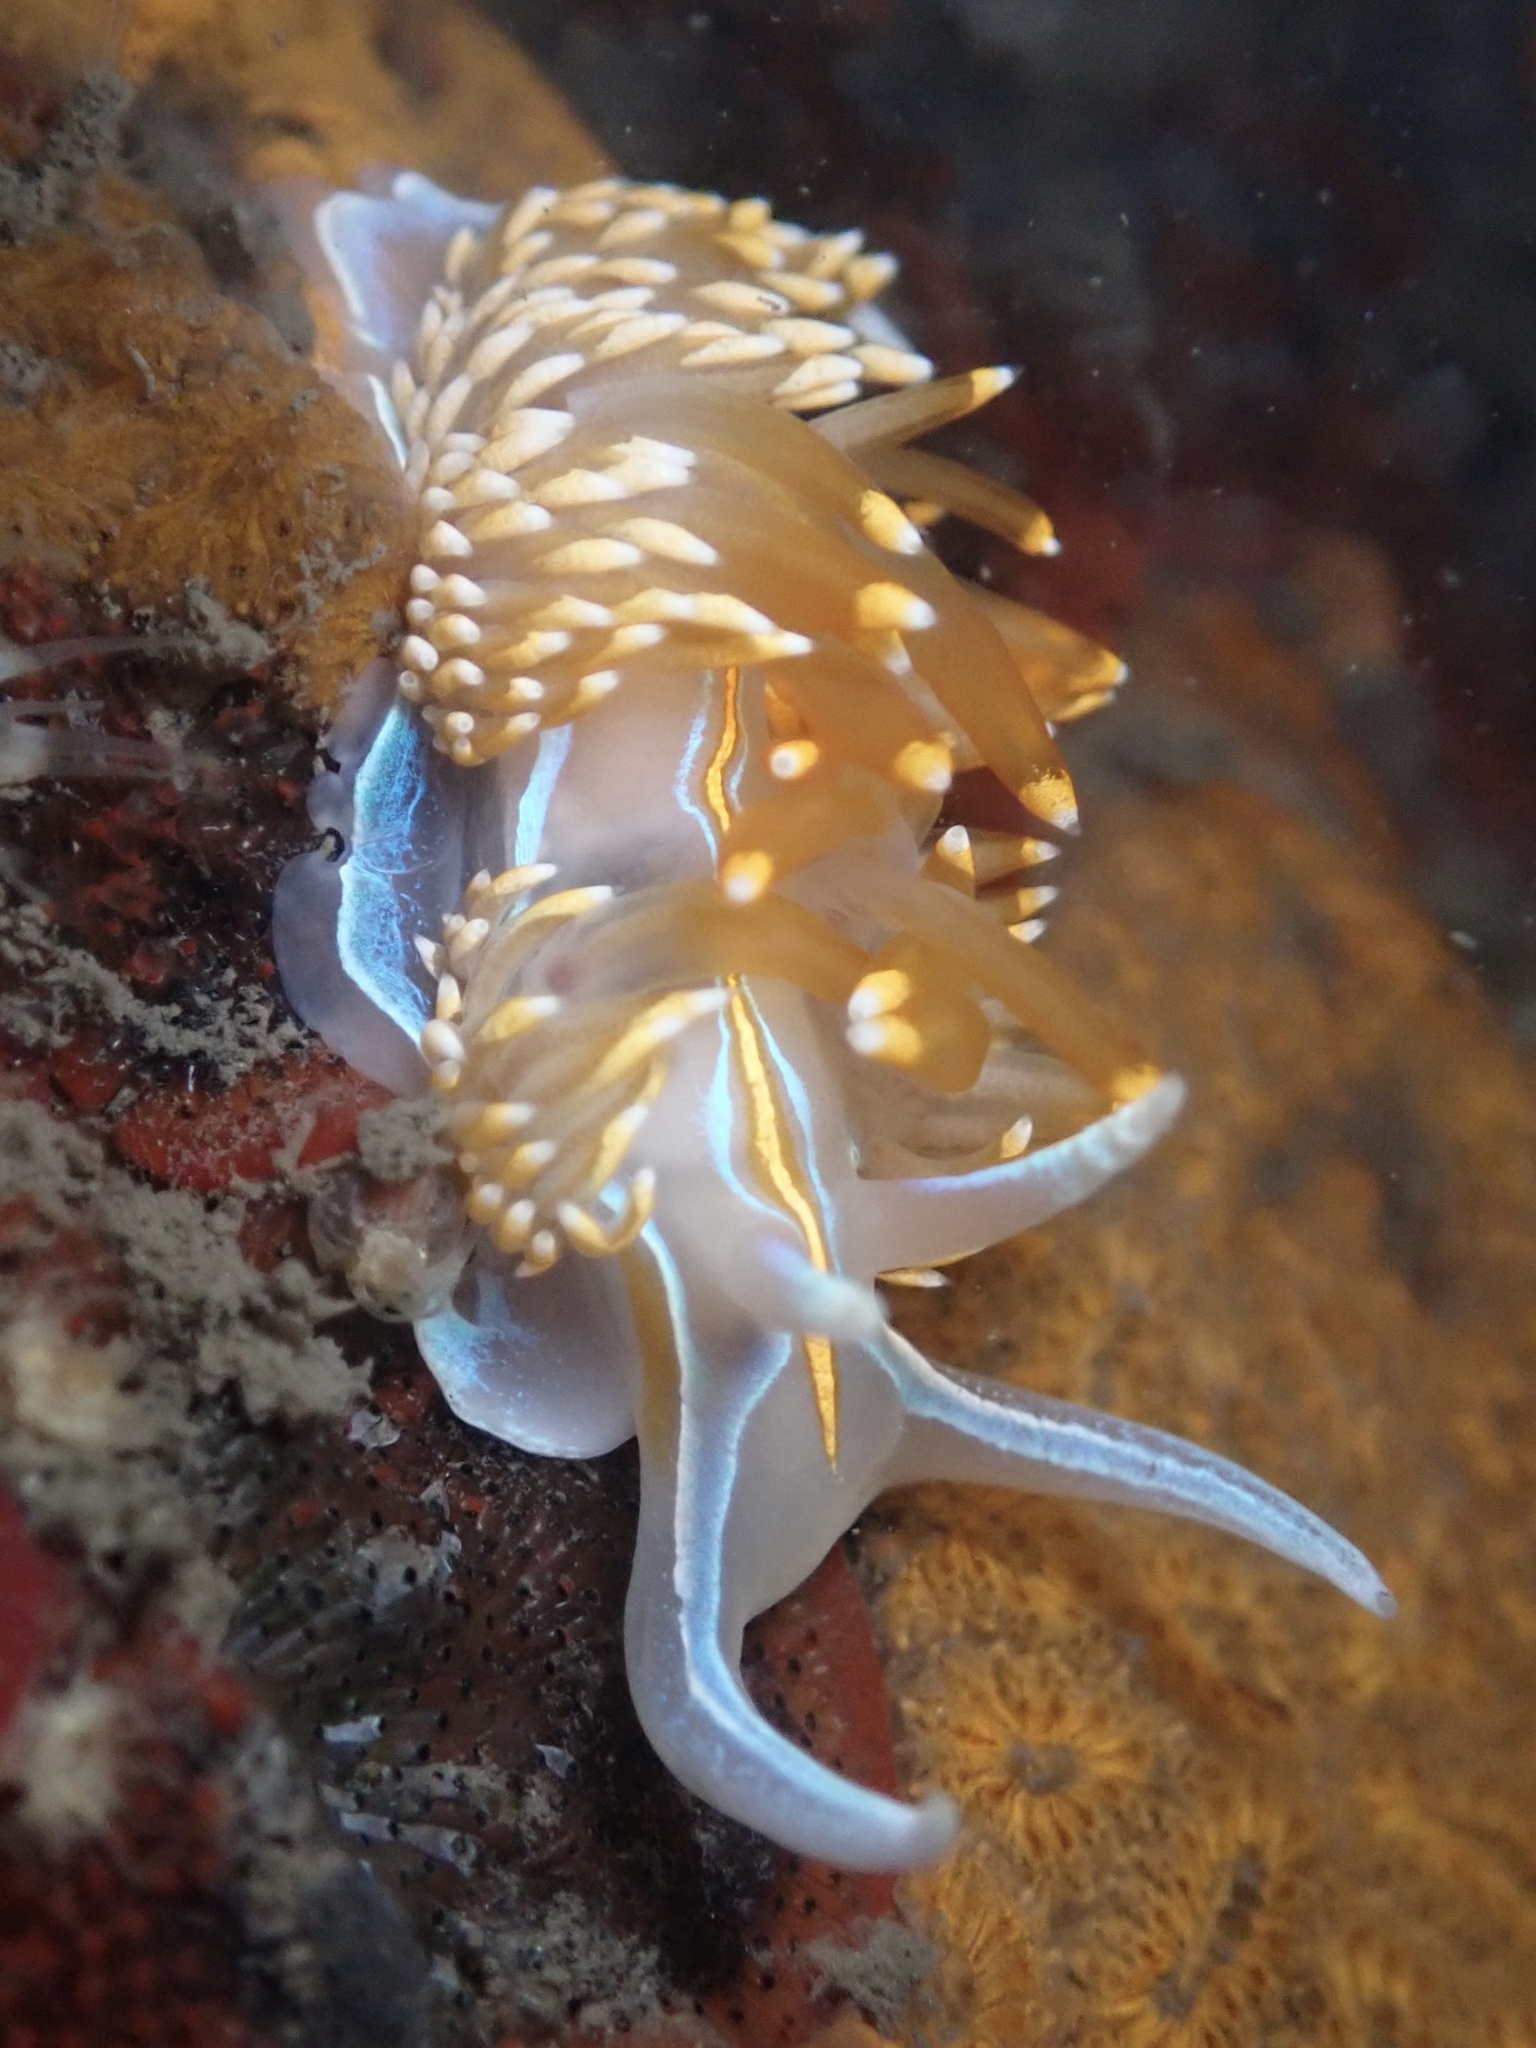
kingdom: Animalia
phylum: Mollusca
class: Gastropoda
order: Nudibranchia
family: Myrrhinidae
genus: Hermissenda
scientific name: Hermissenda opalescens
